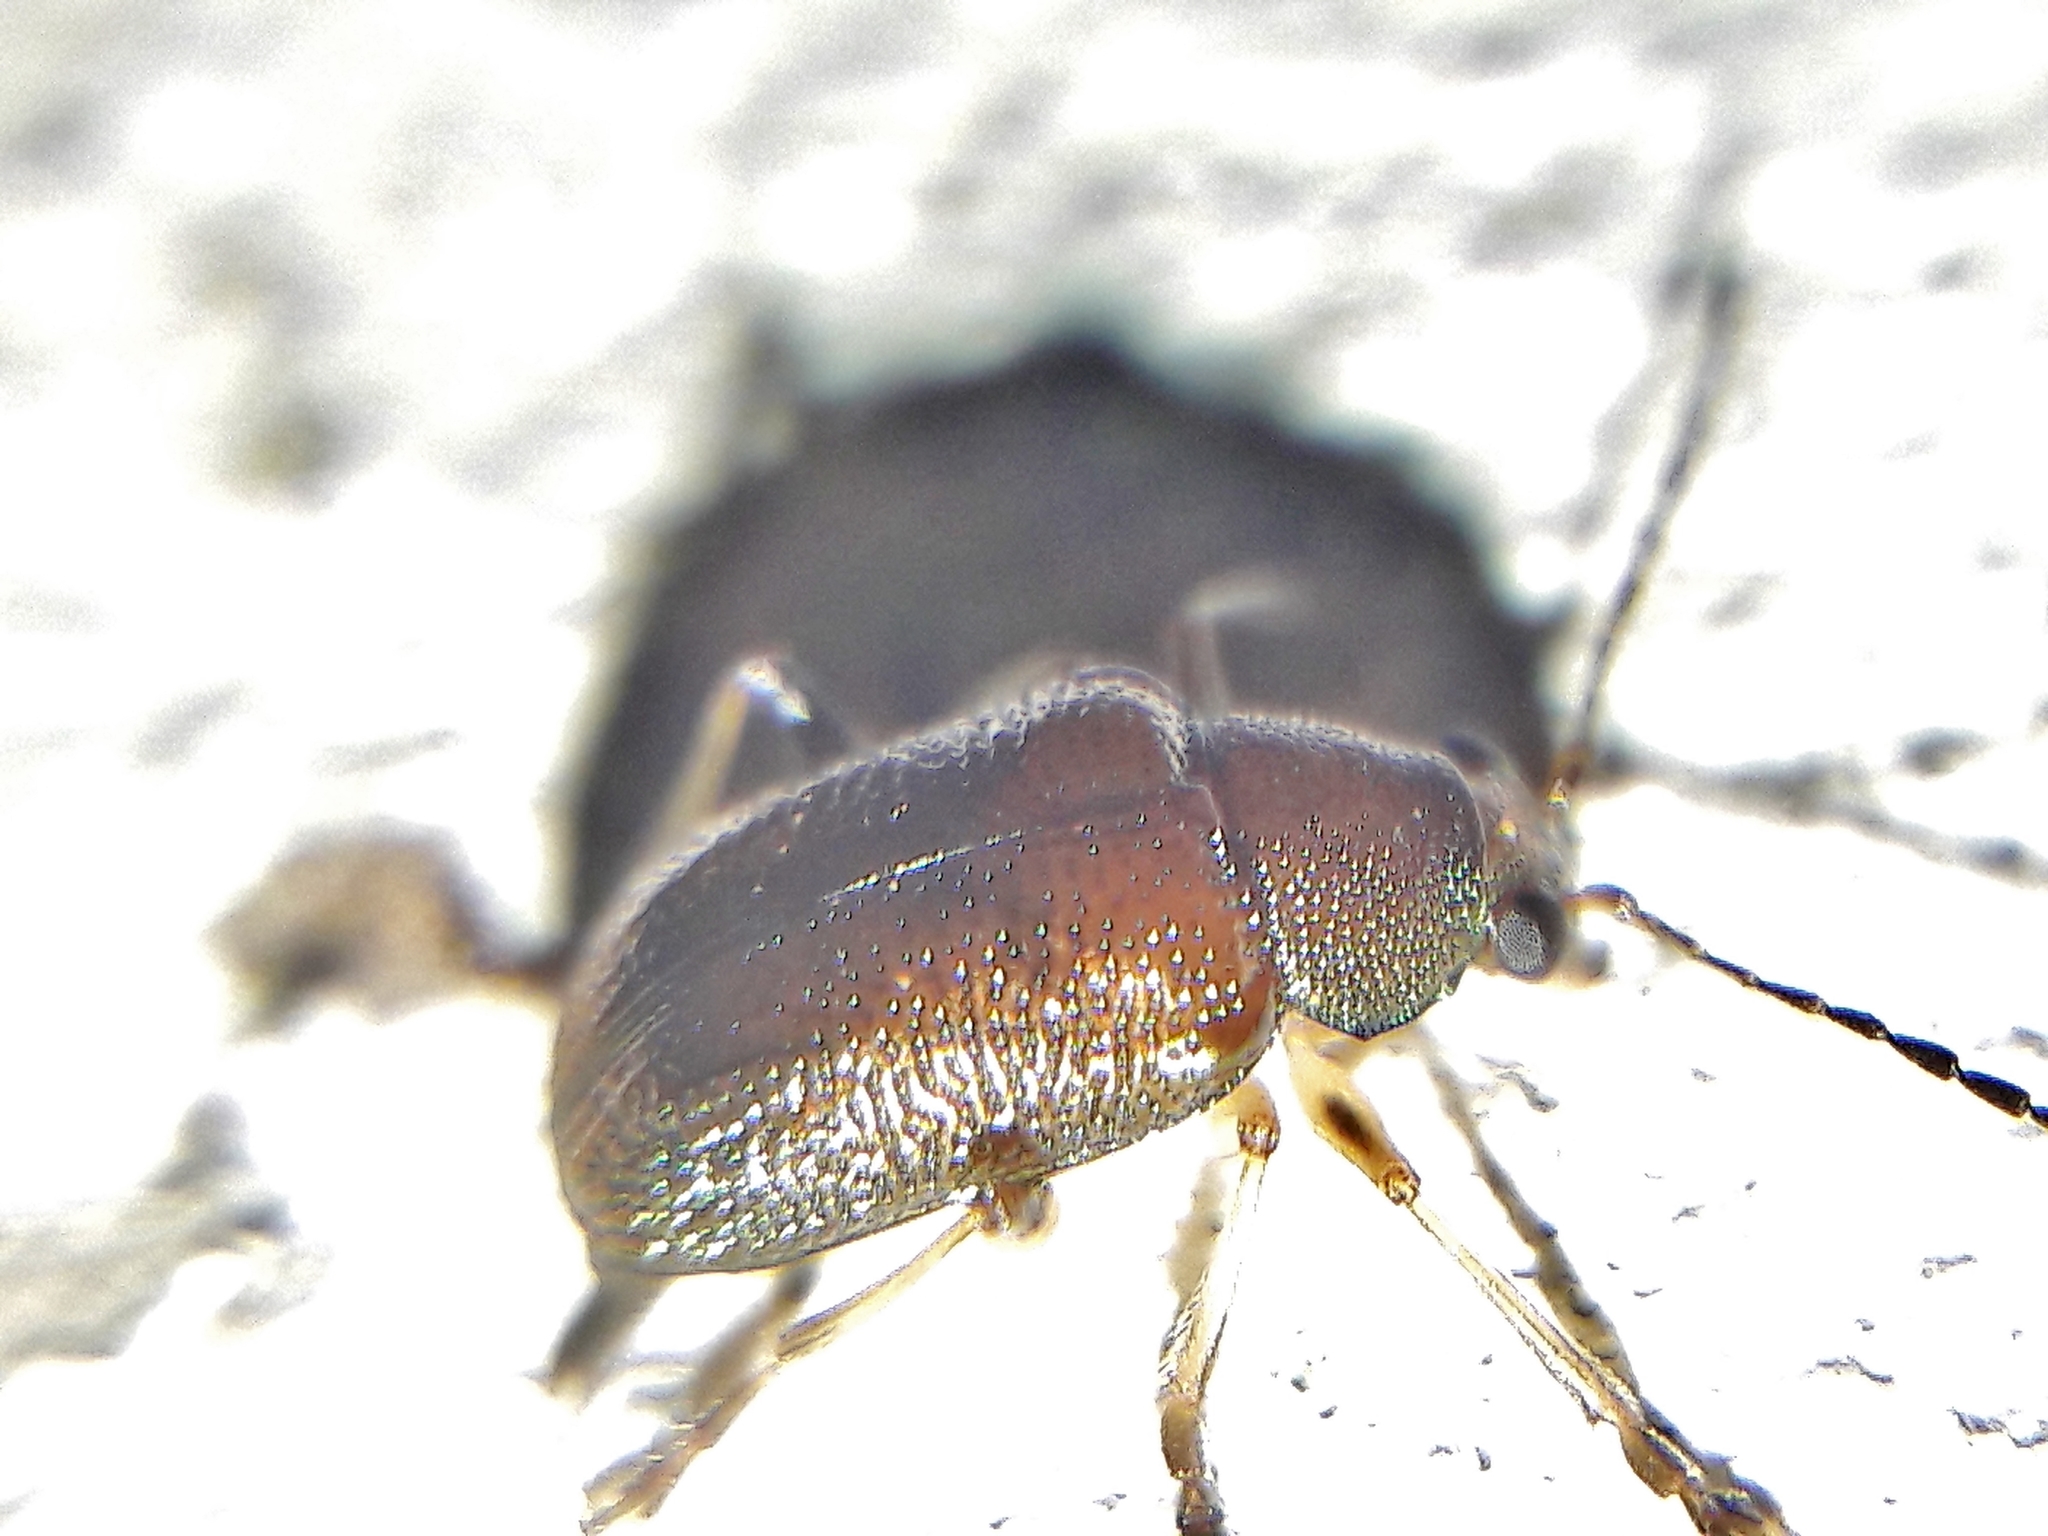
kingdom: Animalia
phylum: Arthropoda
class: Insecta
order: Coleoptera
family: Chrysomelidae
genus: Percolaspis
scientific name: Percolaspis
